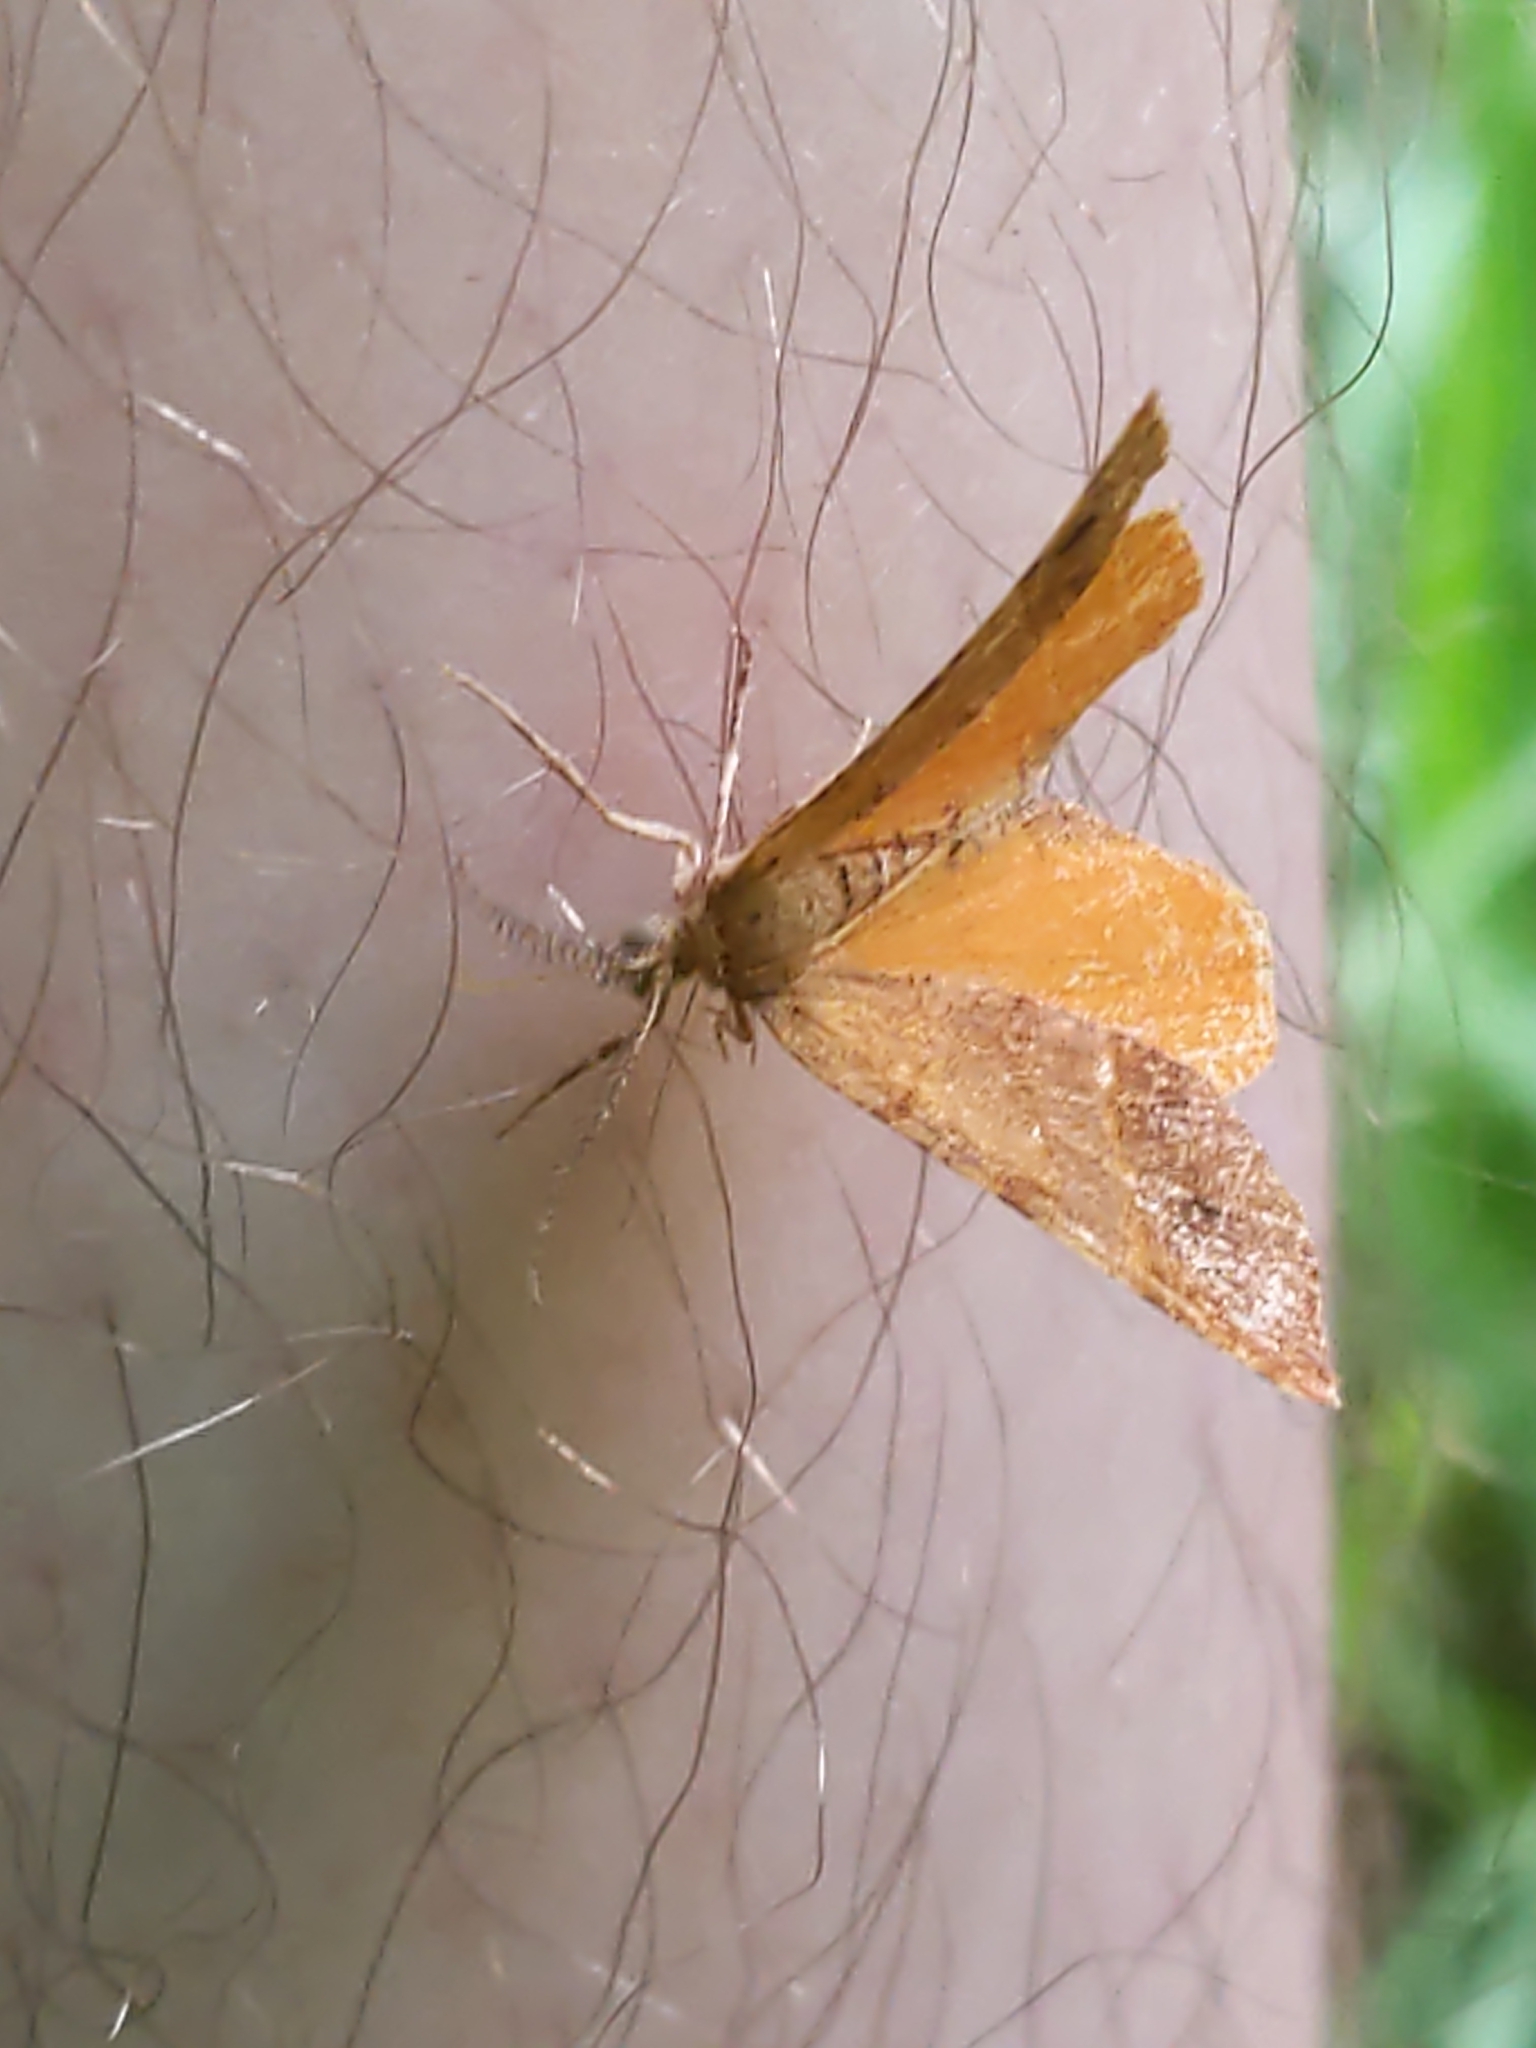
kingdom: Animalia
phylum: Arthropoda
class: Insecta
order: Lepidoptera
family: Geometridae
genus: Mellilla
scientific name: Mellilla xanthometata
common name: Orange wing moth
